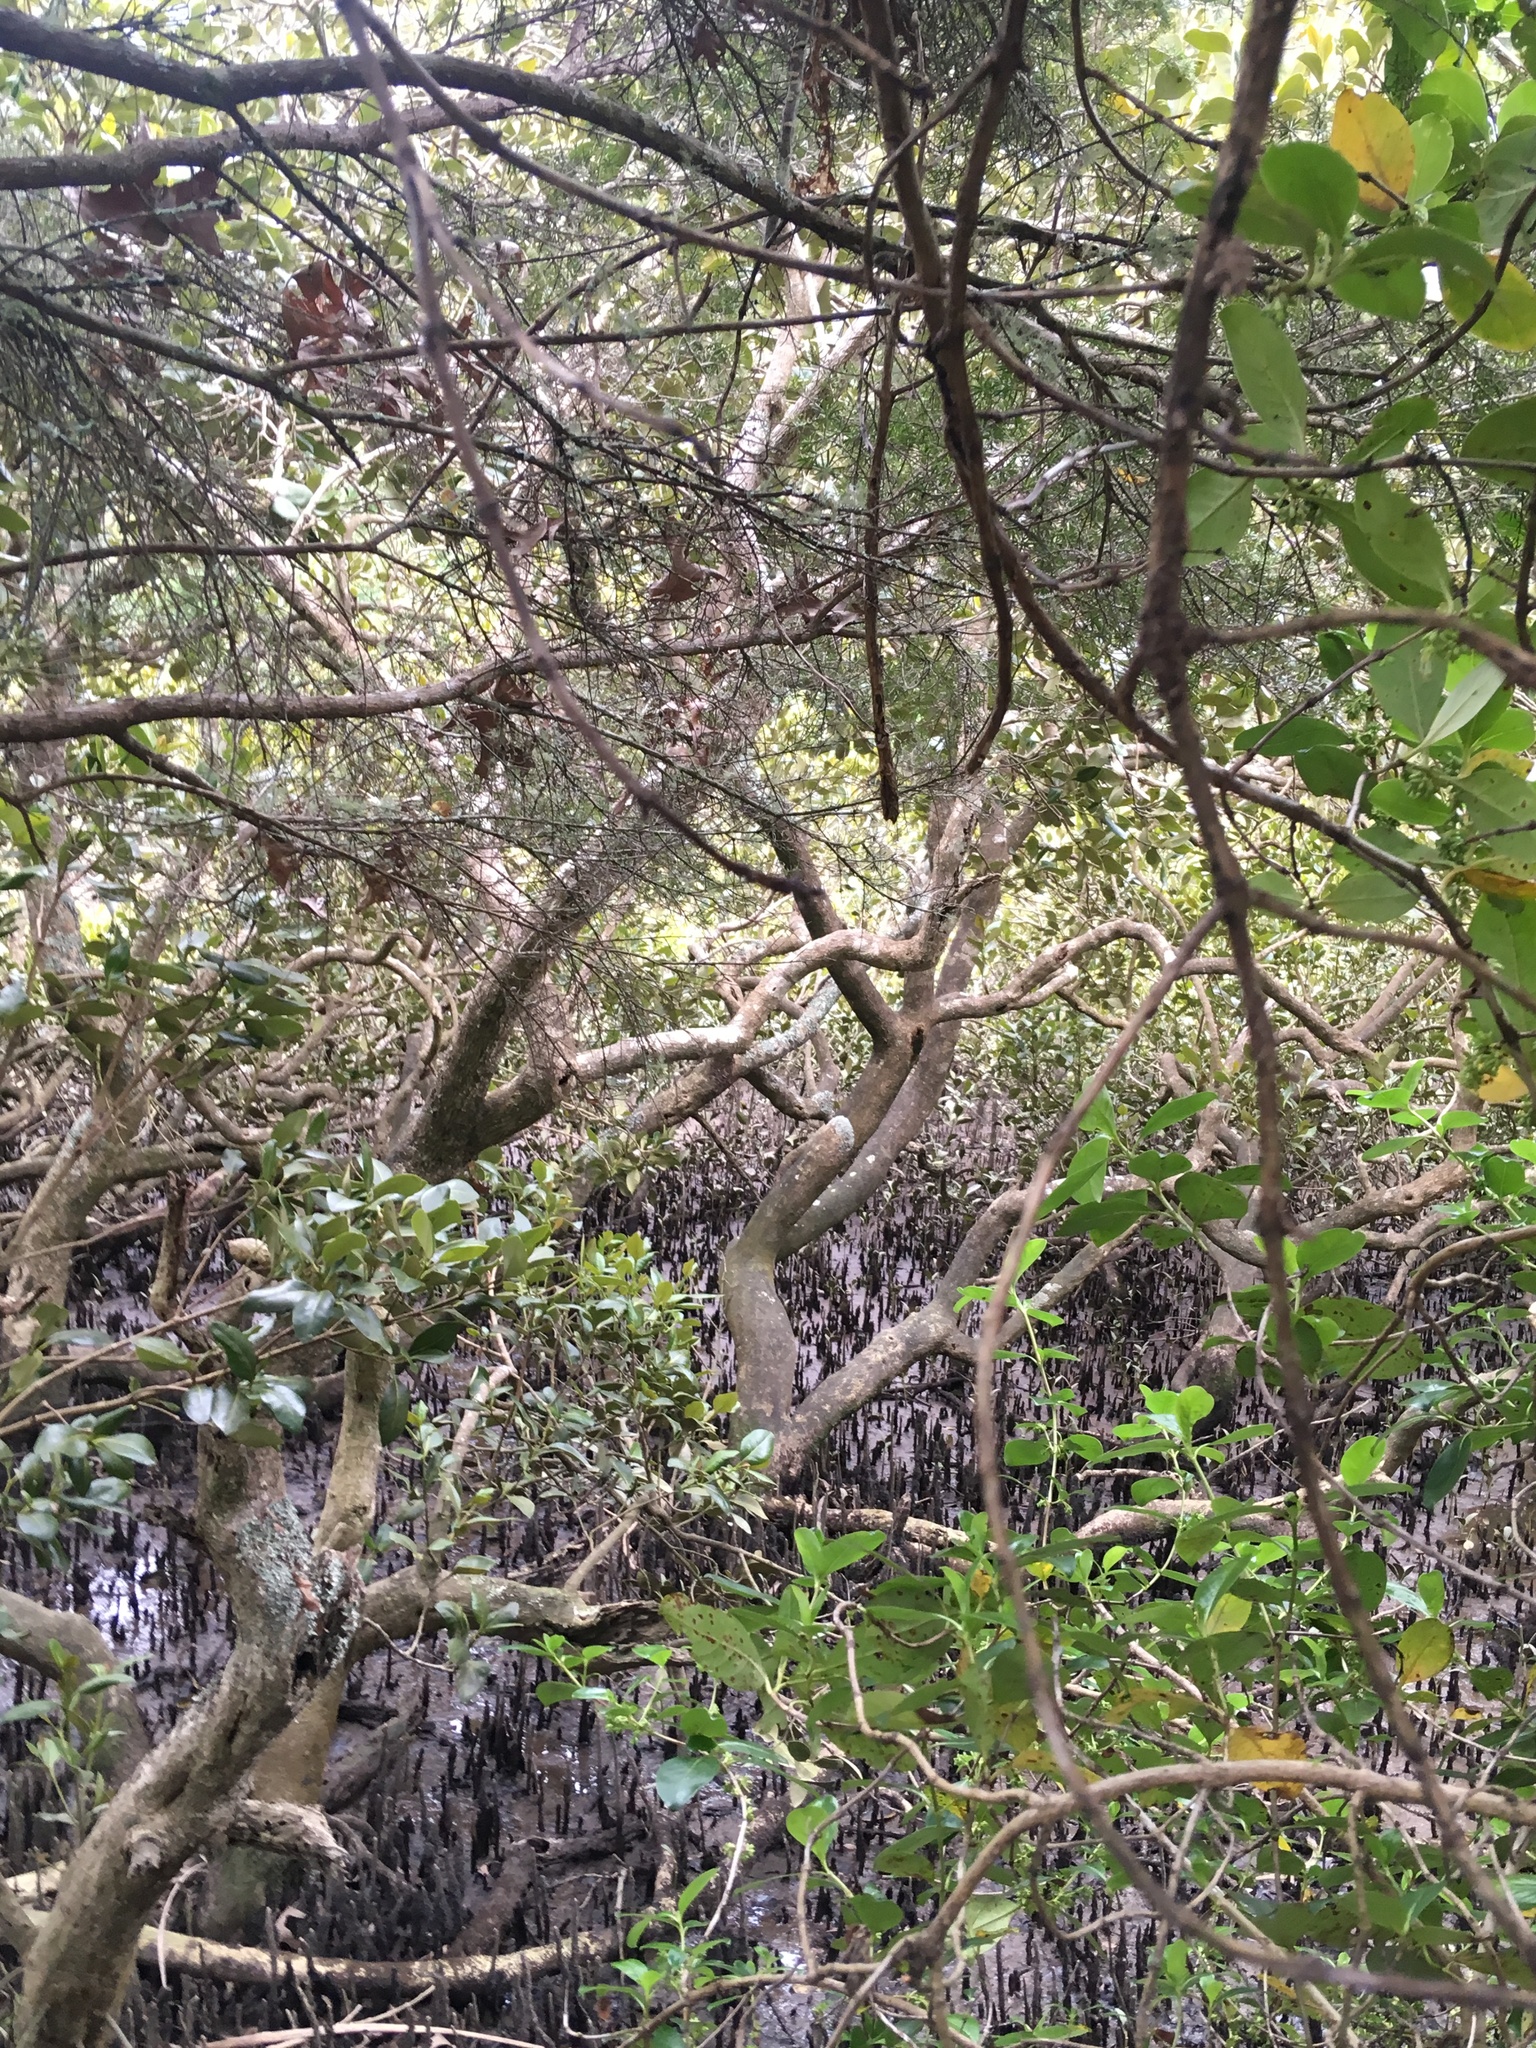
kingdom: Plantae
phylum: Tracheophyta
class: Magnoliopsida
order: Lamiales
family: Acanthaceae
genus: Avicennia
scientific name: Avicennia marina
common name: Gray mangrove
